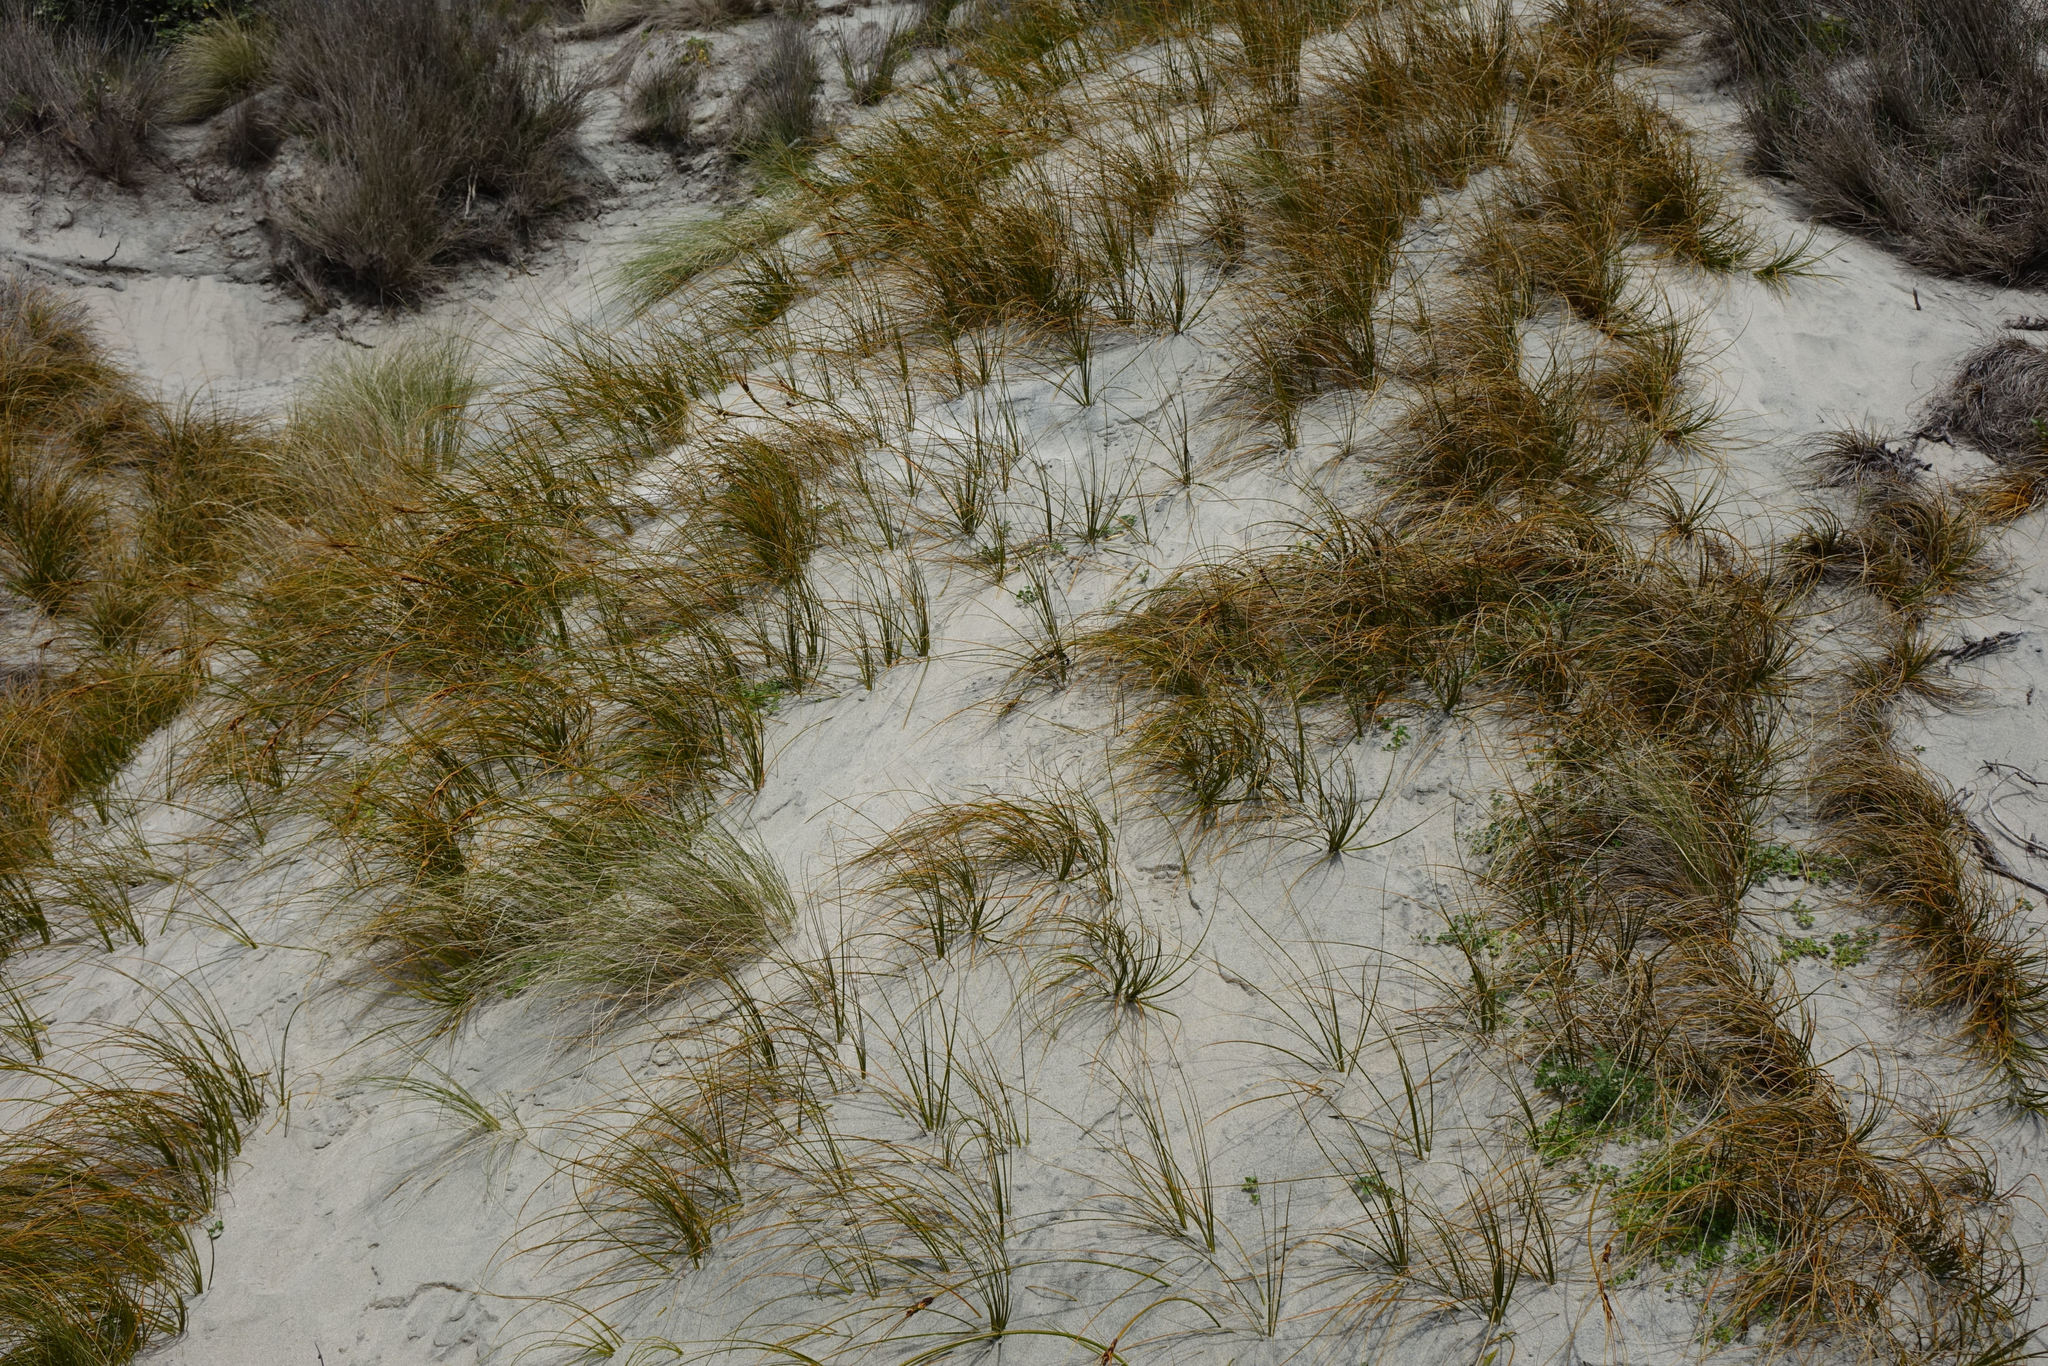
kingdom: Plantae
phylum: Tracheophyta
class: Liliopsida
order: Poales
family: Cyperaceae
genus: Ficinia
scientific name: Ficinia spiralis
